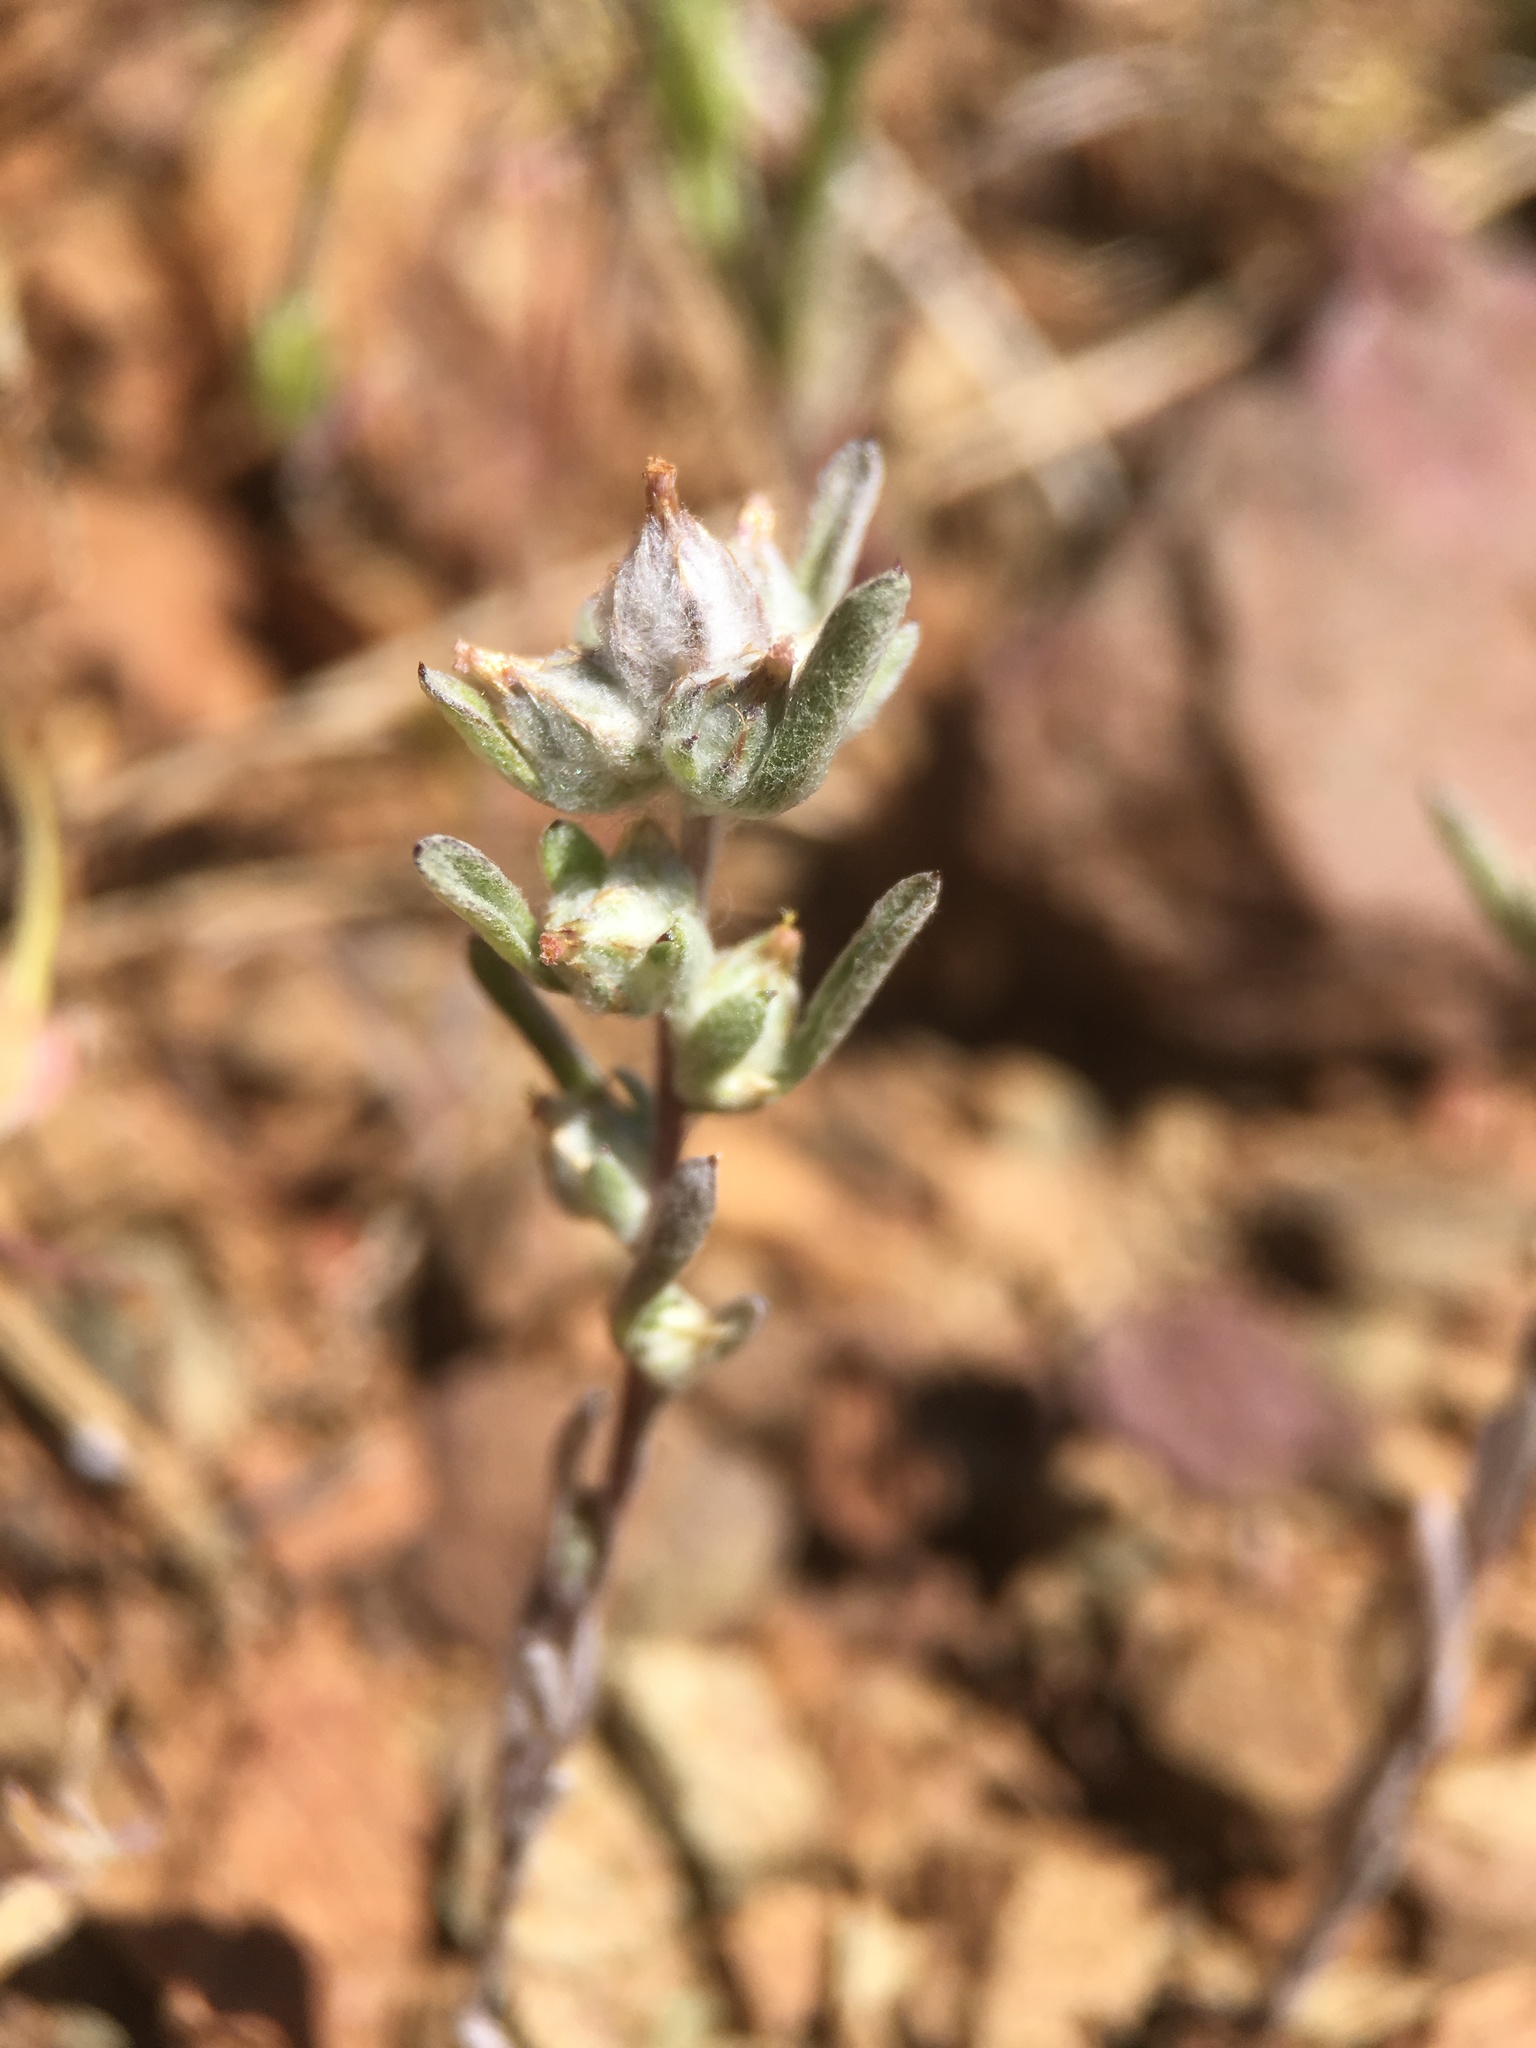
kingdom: Plantae
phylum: Tracheophyta
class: Magnoliopsida
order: Asterales
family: Asteraceae
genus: Logfia
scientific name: Logfia californica
